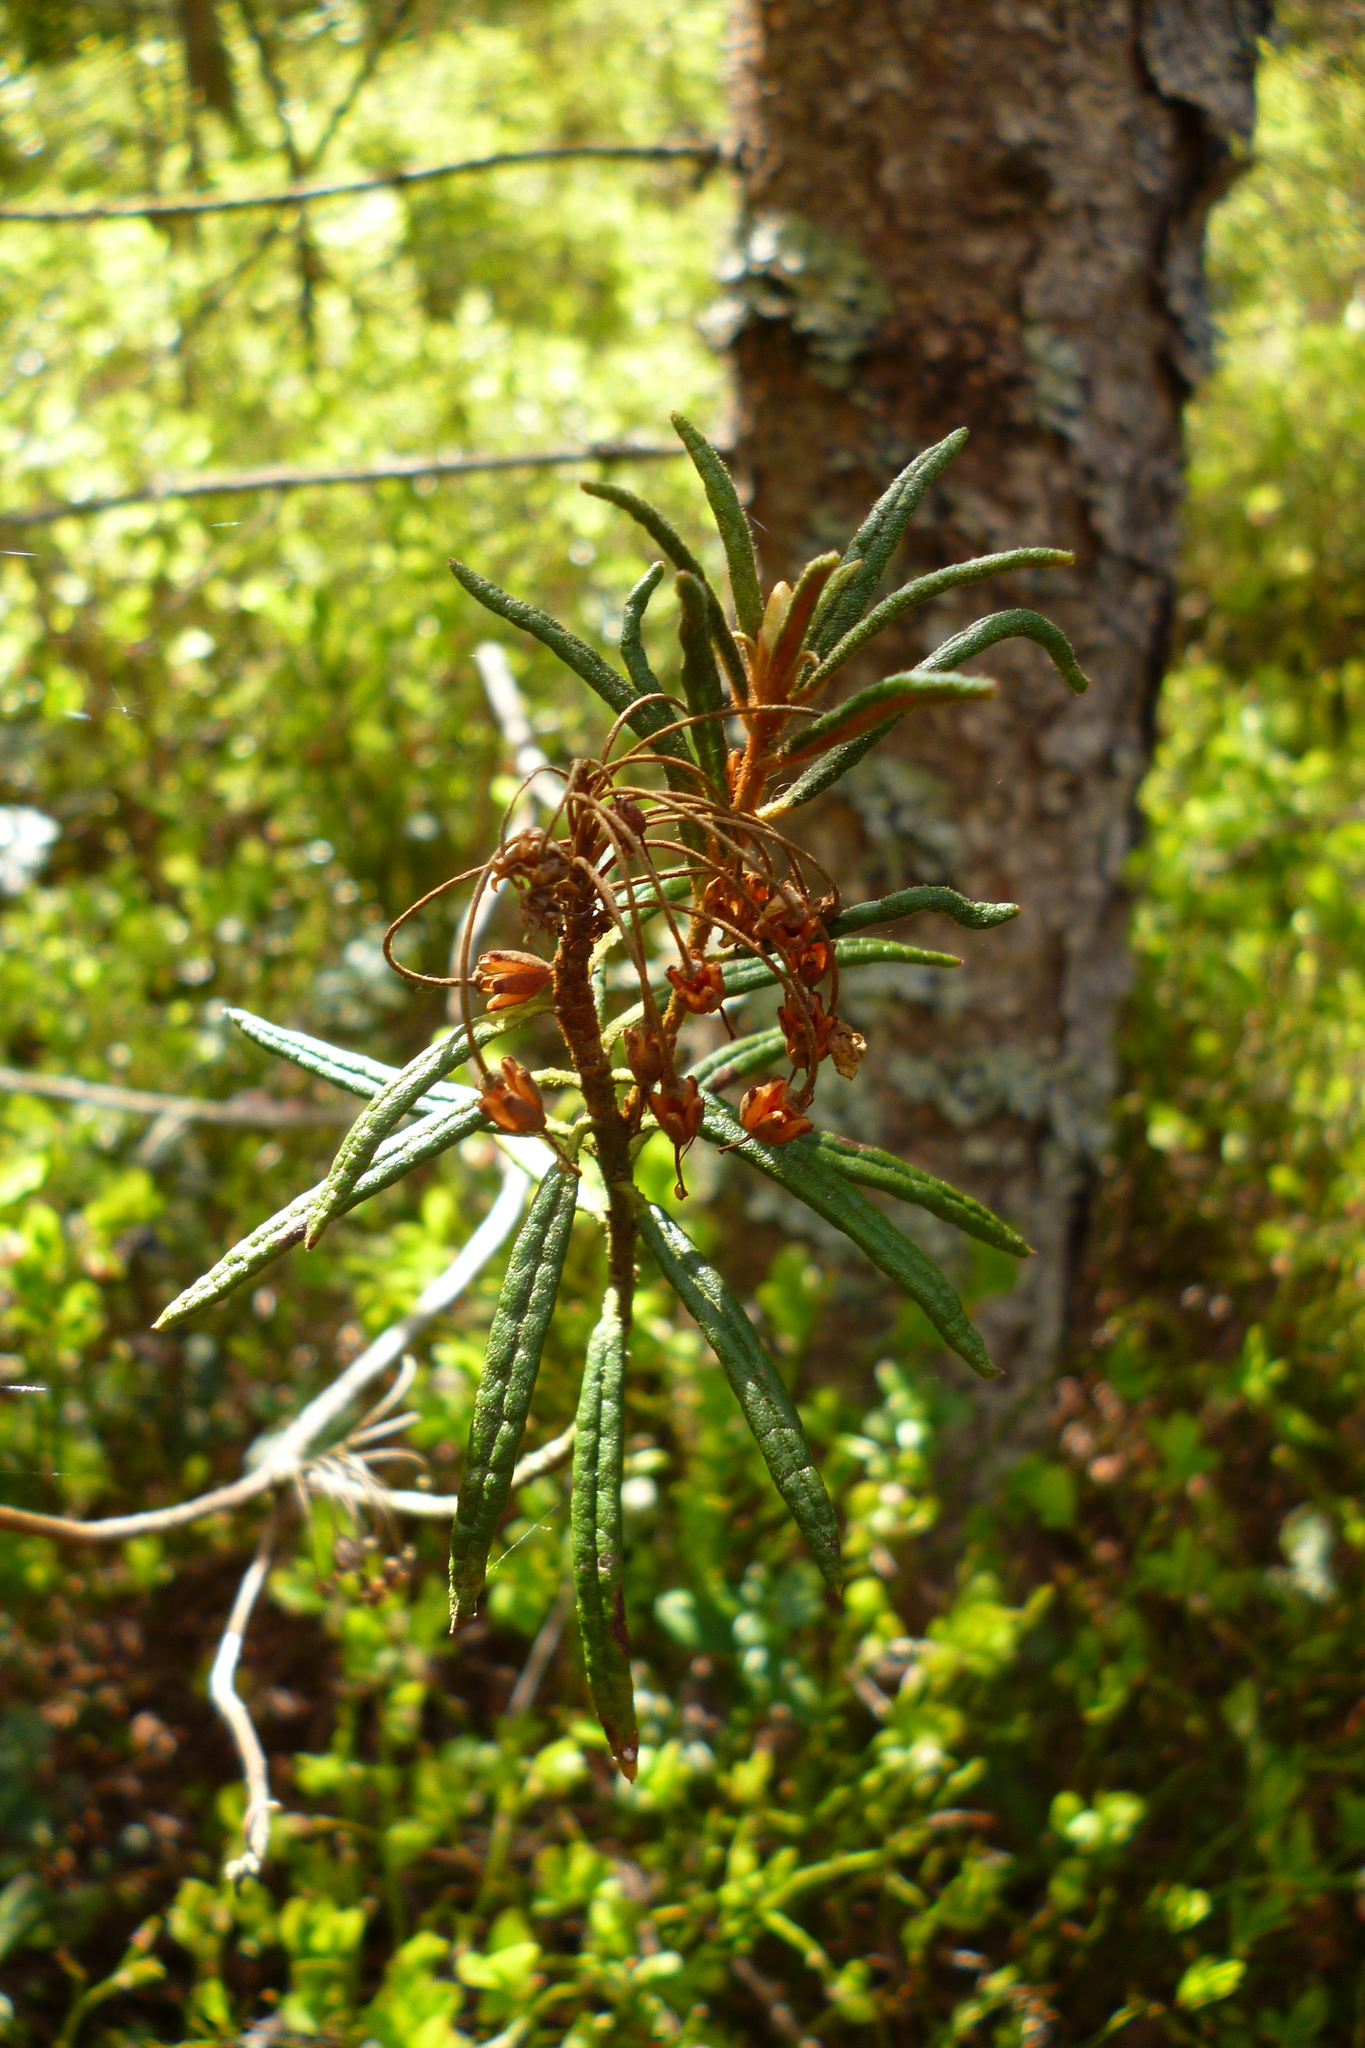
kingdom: Plantae
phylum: Tracheophyta
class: Magnoliopsida
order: Ericales
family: Ericaceae
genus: Rhododendron
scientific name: Rhododendron tomentosum
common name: Marsh labrador tea
